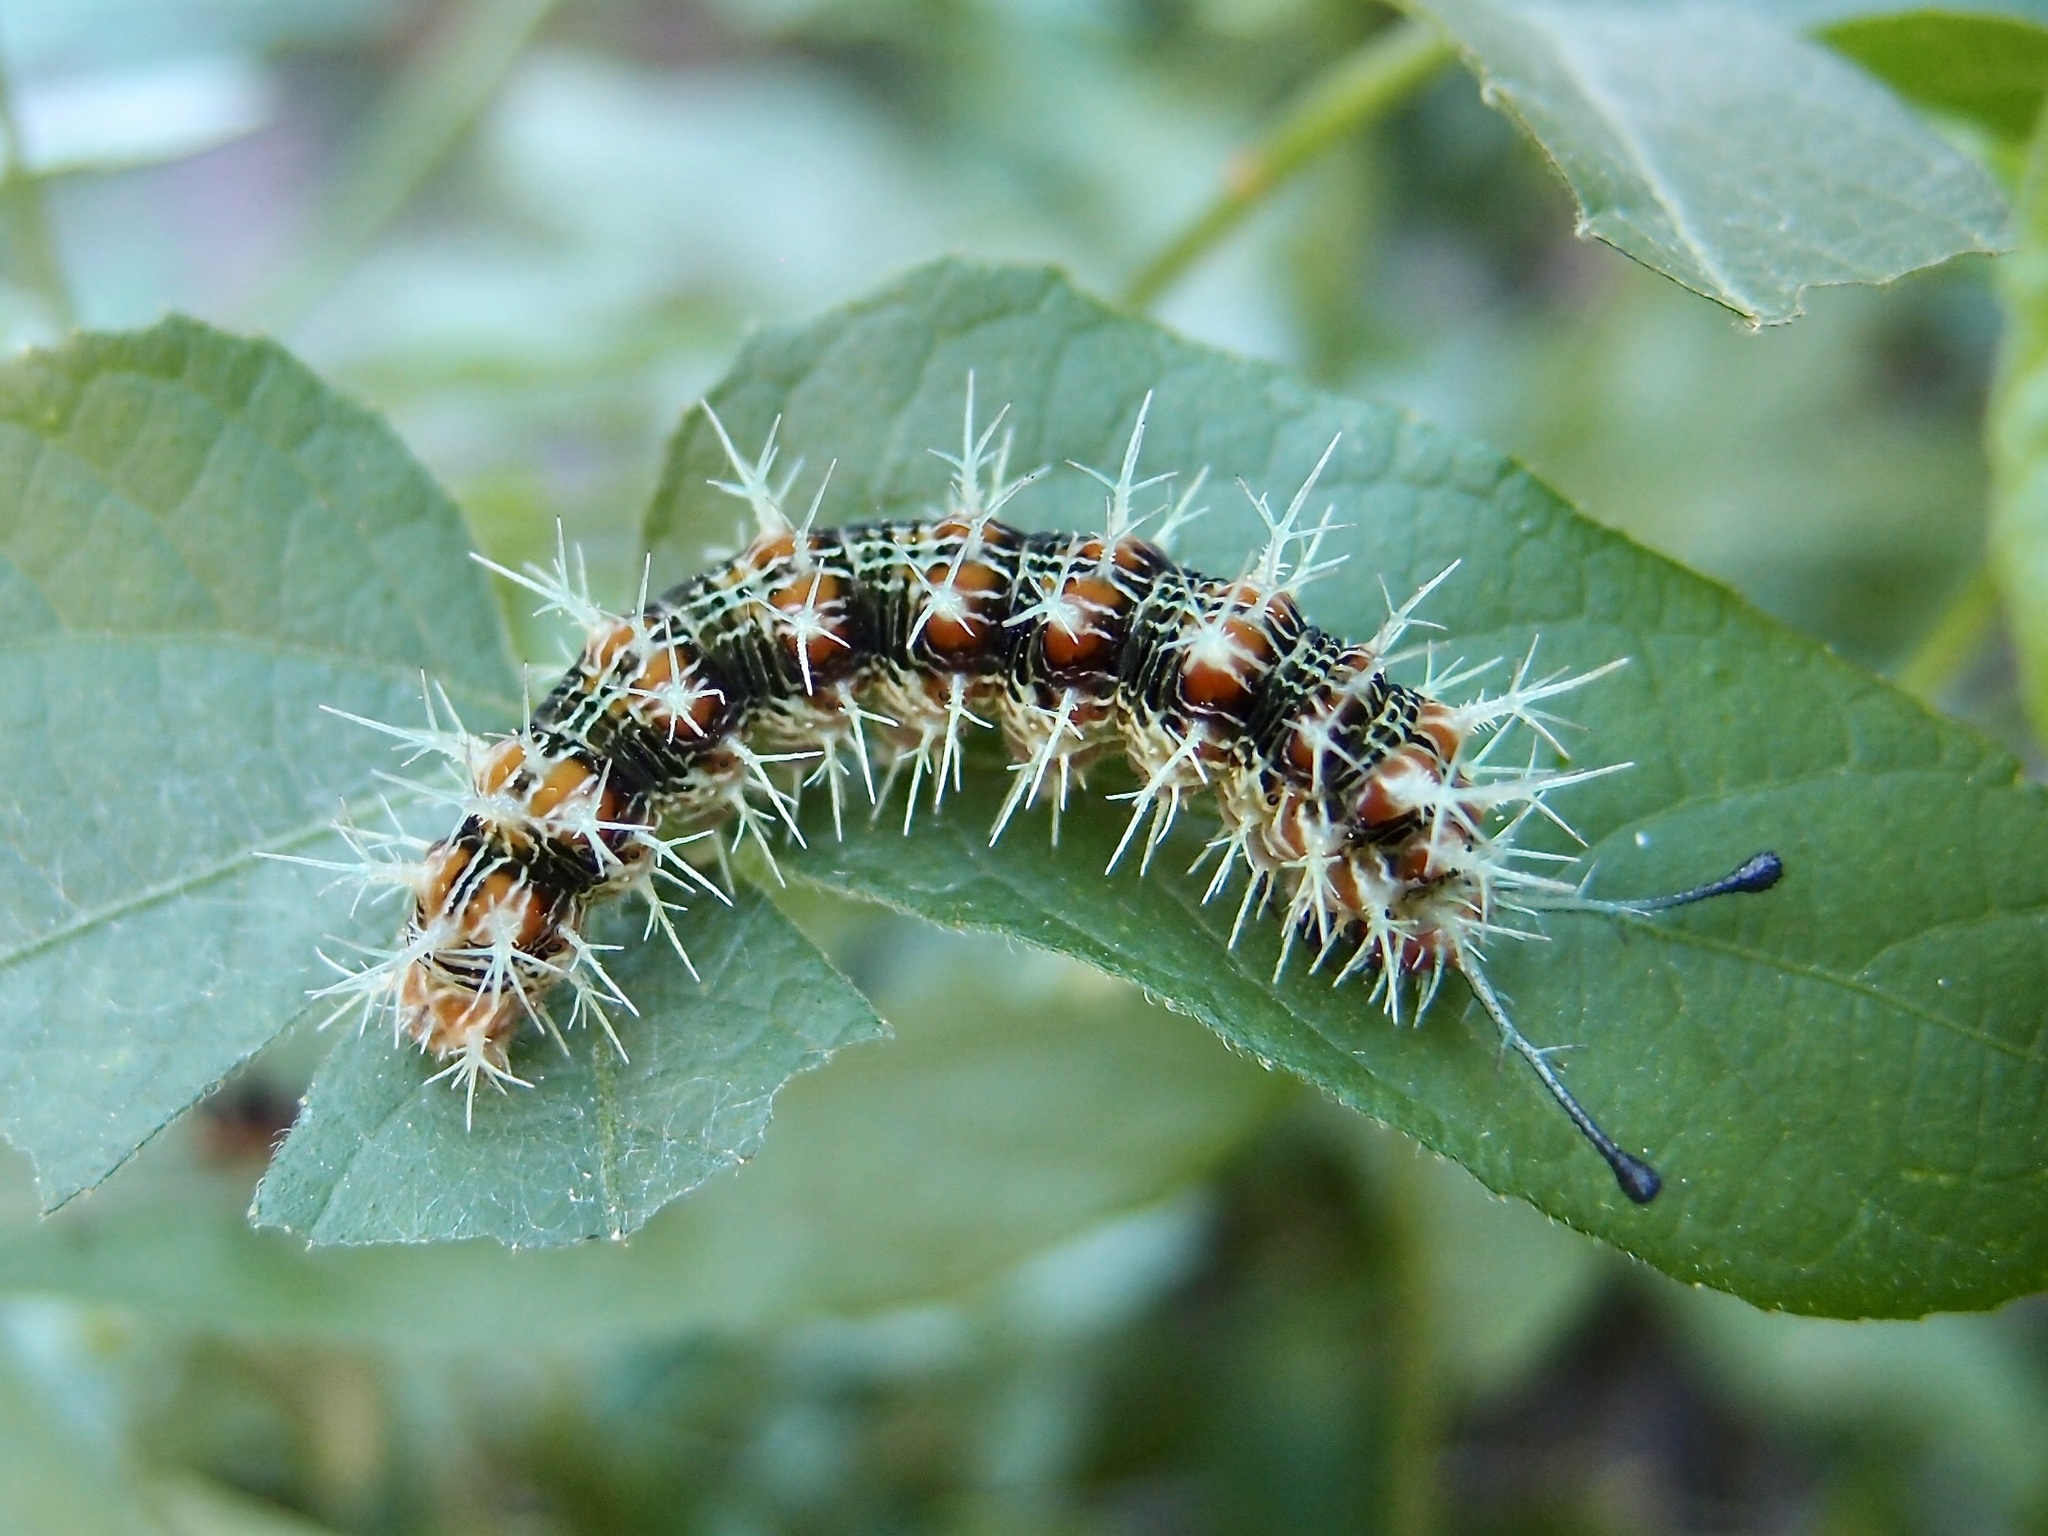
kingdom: Animalia
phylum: Arthropoda
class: Insecta
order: Lepidoptera
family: Nymphalidae
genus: Hamadryas
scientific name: Hamadryas februa
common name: Gray cracker
